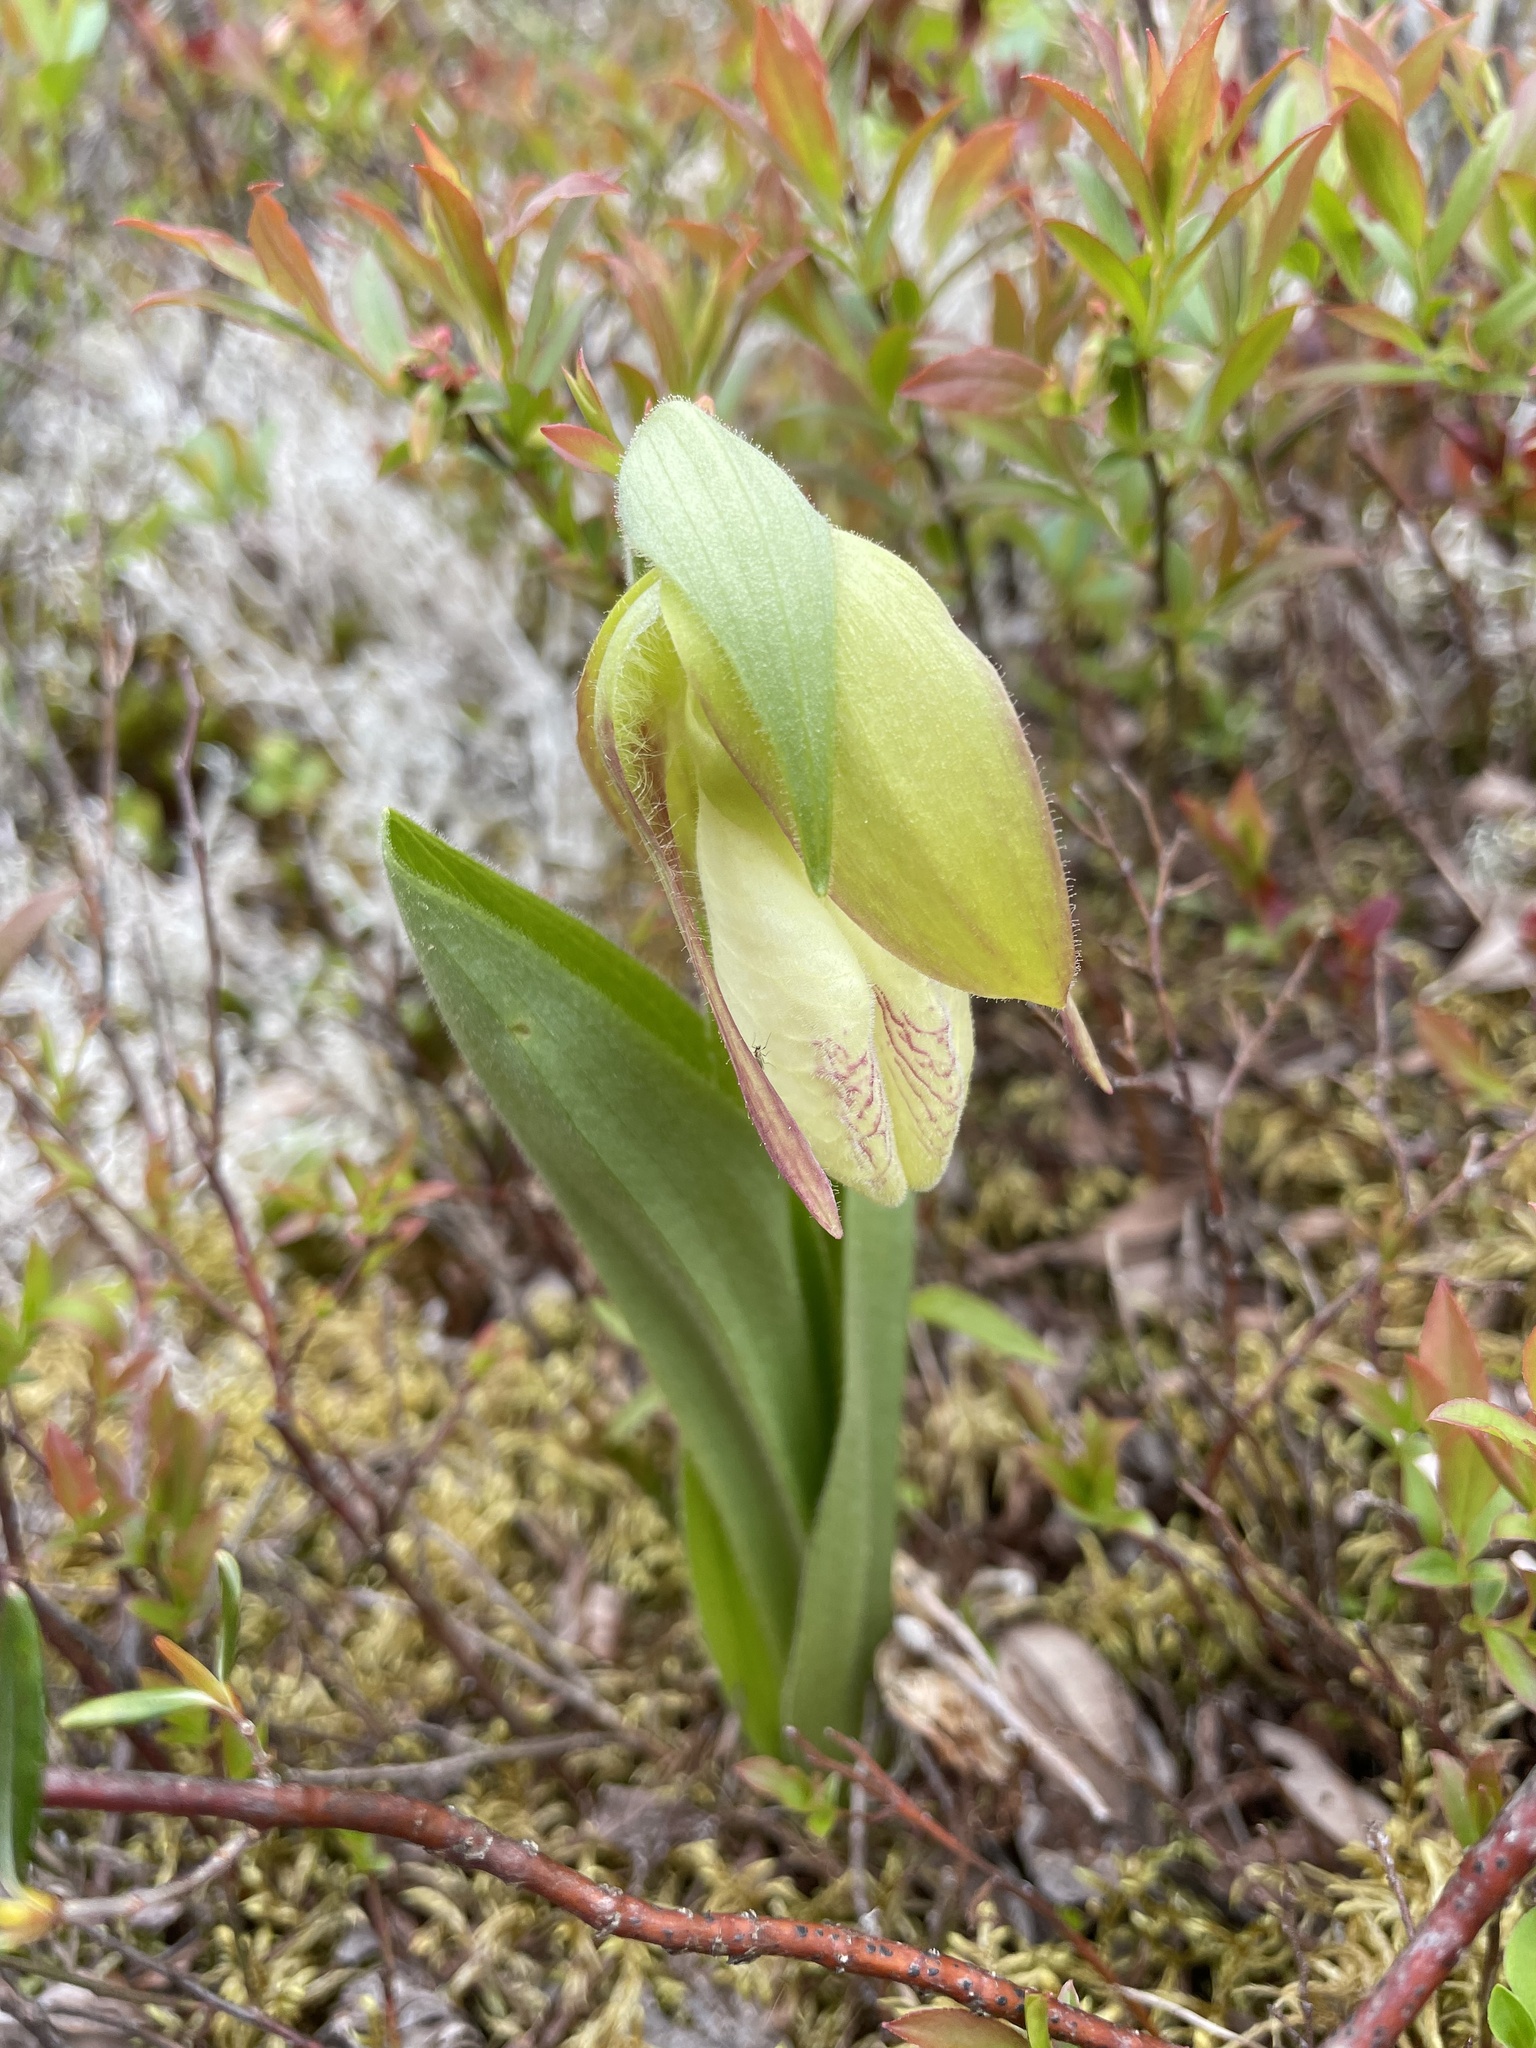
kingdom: Plantae
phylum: Tracheophyta
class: Liliopsida
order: Asparagales
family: Orchidaceae
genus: Cypripedium
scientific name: Cypripedium acaule
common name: Pink lady's-slipper
